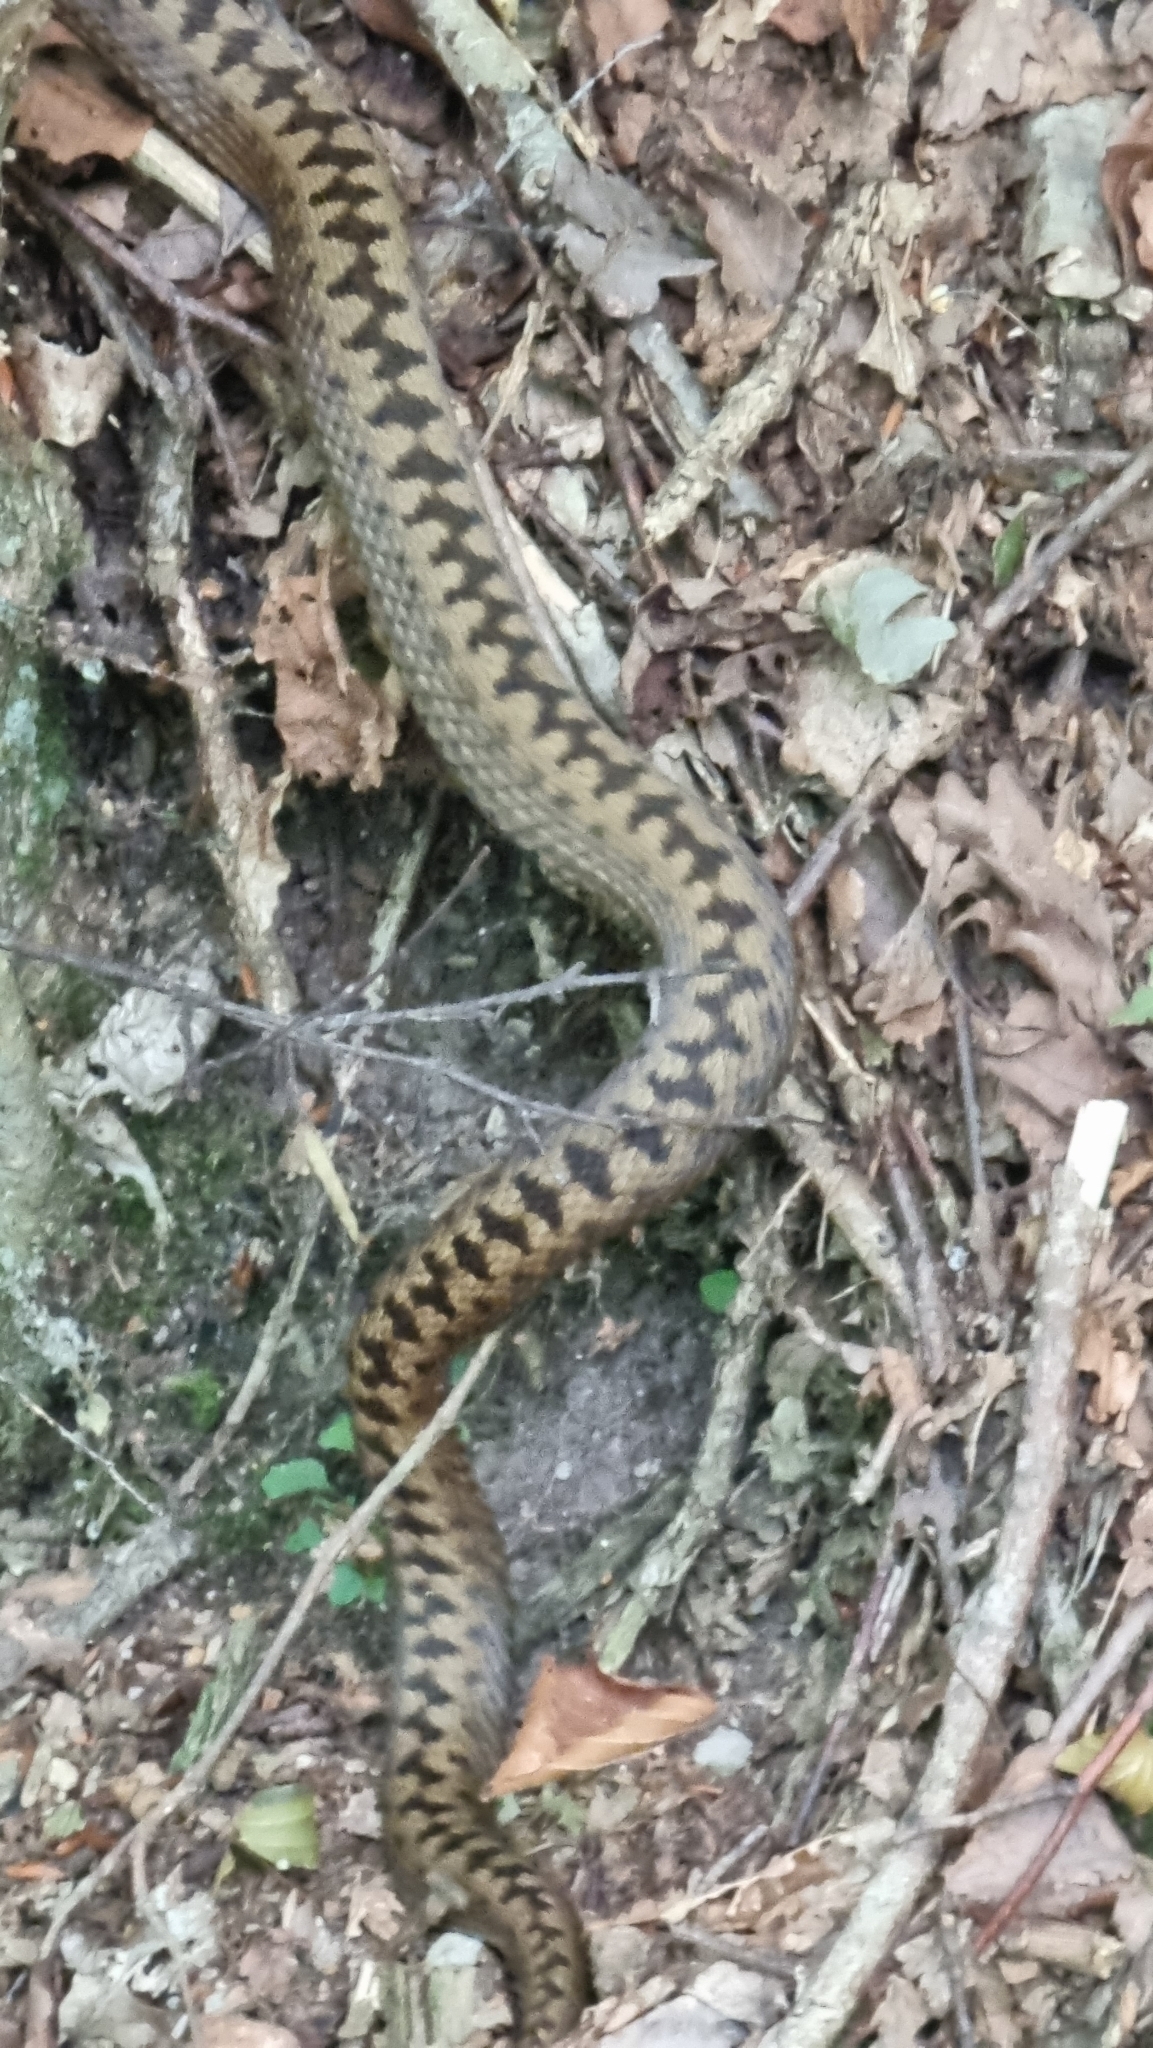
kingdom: Animalia
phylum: Chordata
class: Squamata
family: Viperidae
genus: Vipera
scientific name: Vipera berus
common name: Adder
